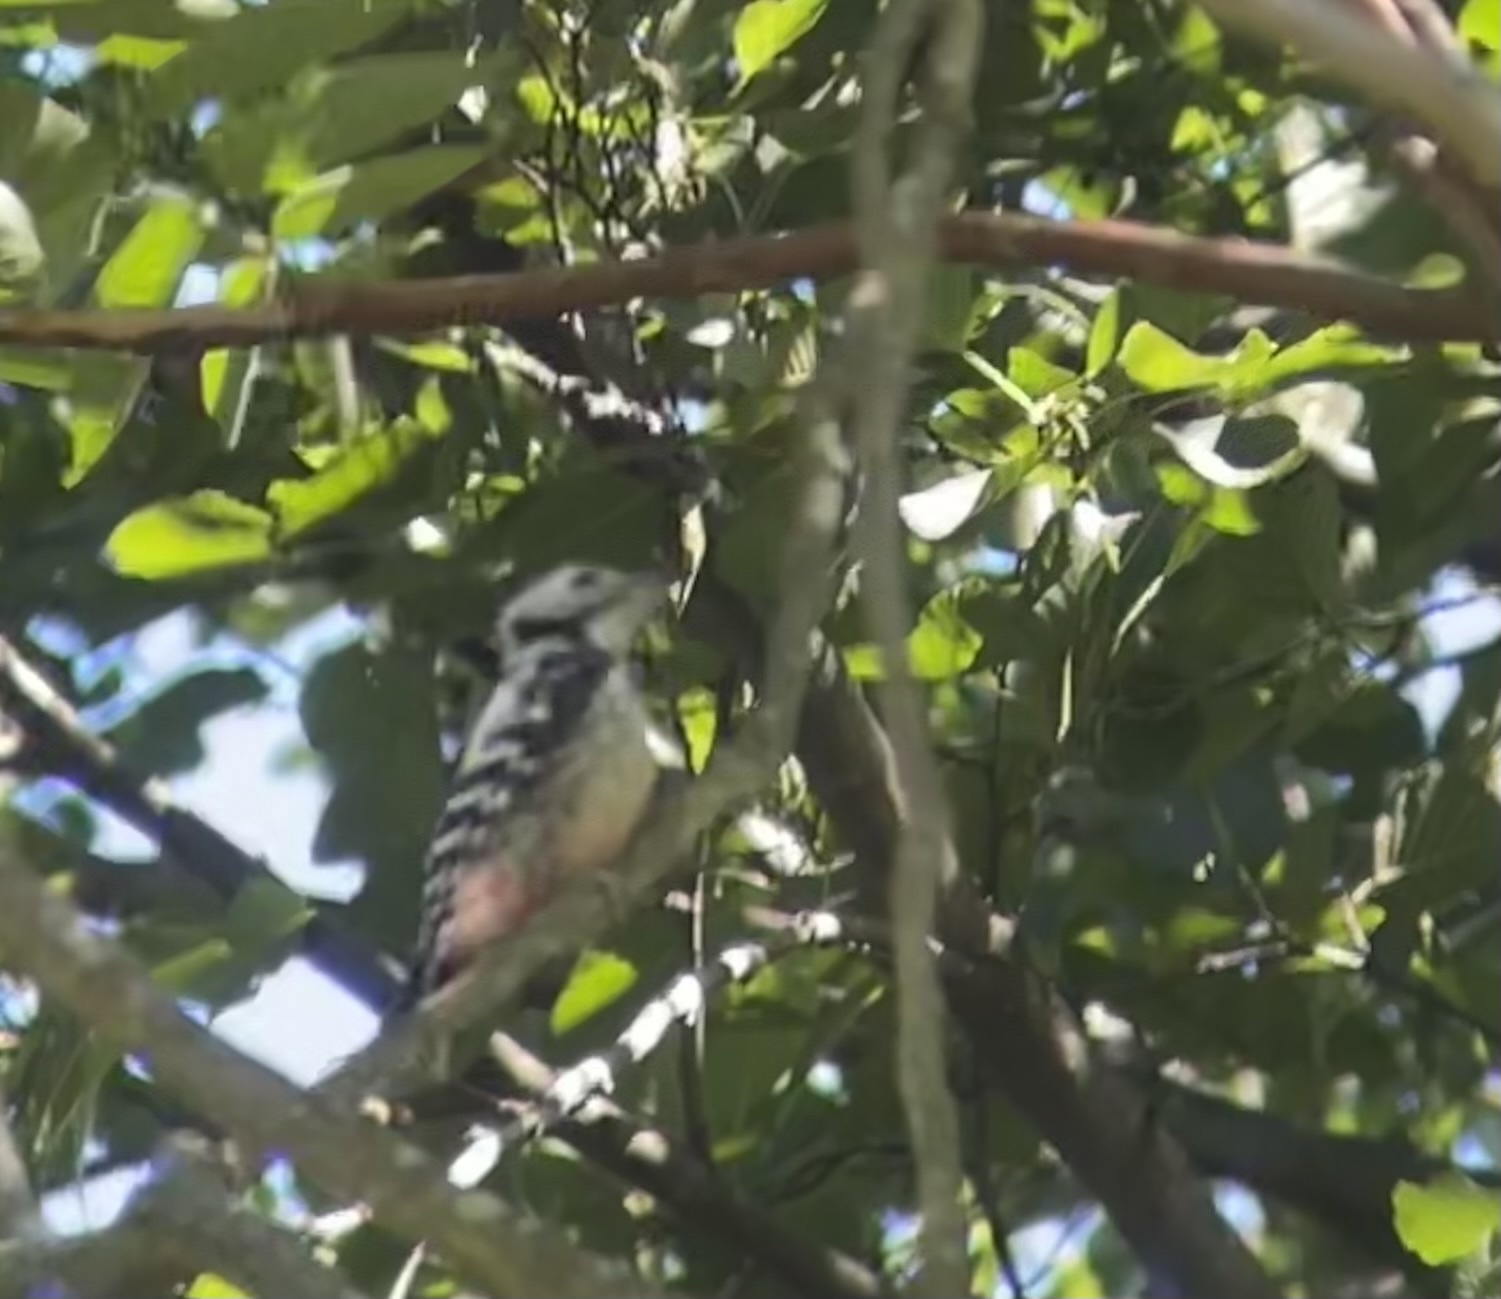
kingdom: Animalia
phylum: Chordata
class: Aves
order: Piciformes
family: Picidae
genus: Dendrocoptes
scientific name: Dendrocoptes medius
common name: Middle spotted woodpecker
